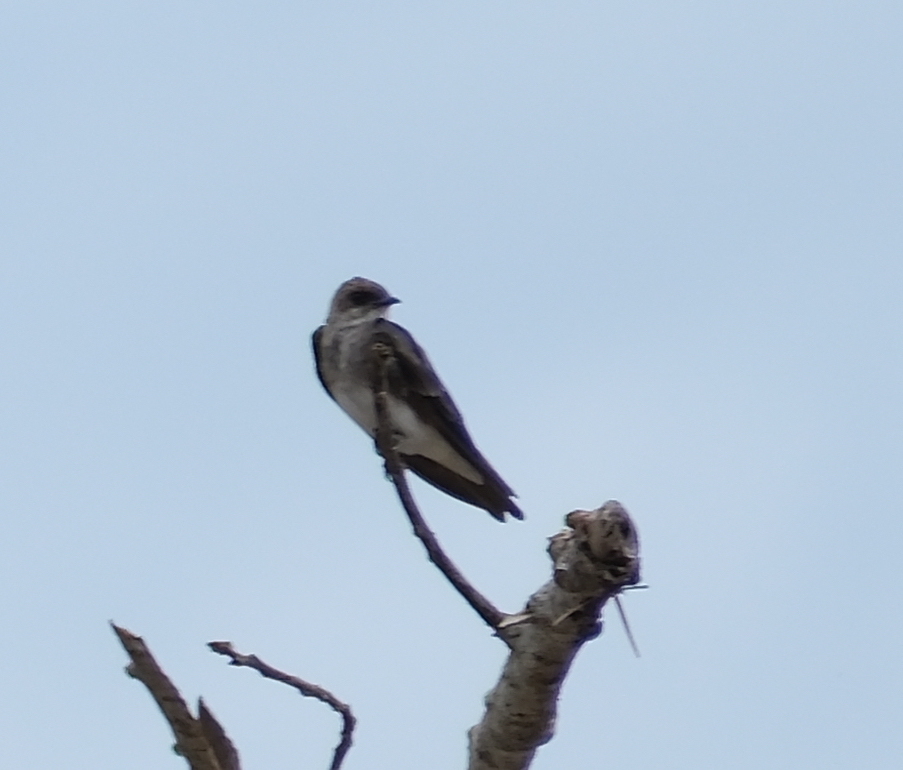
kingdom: Animalia
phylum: Chordata
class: Aves
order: Passeriformes
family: Hirundinidae
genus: Progne
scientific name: Progne tapera
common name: Brown-chested martin
